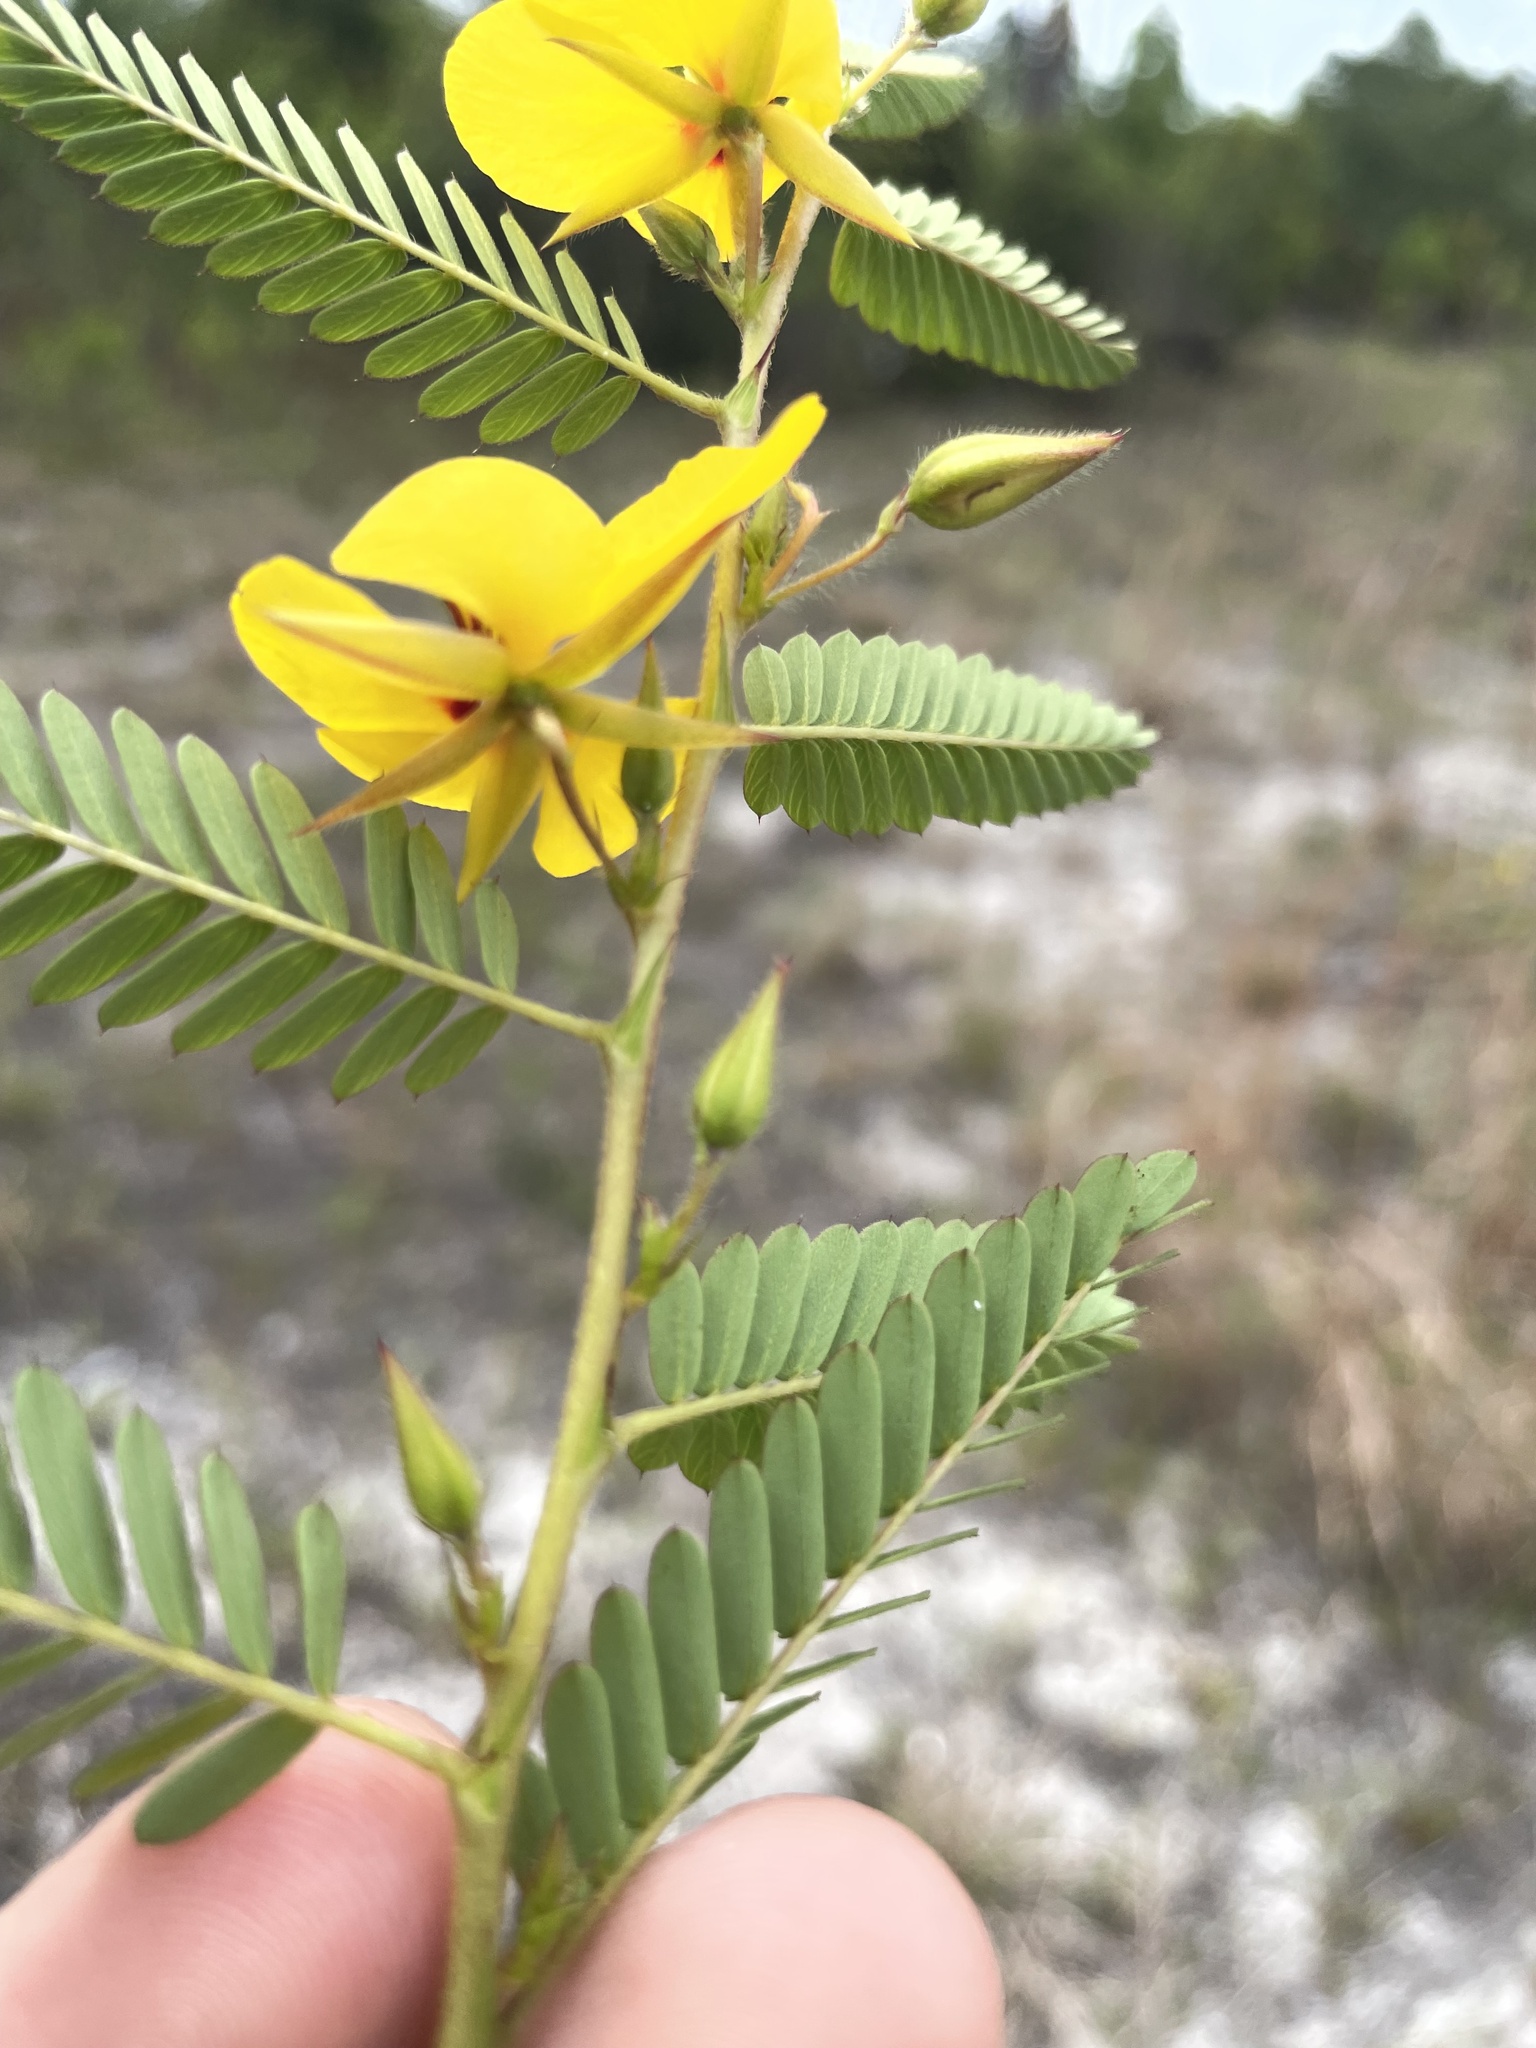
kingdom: Plantae
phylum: Tracheophyta
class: Magnoliopsida
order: Fabales
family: Fabaceae
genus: Chamaecrista
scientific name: Chamaecrista fasciculata
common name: Golden cassia
